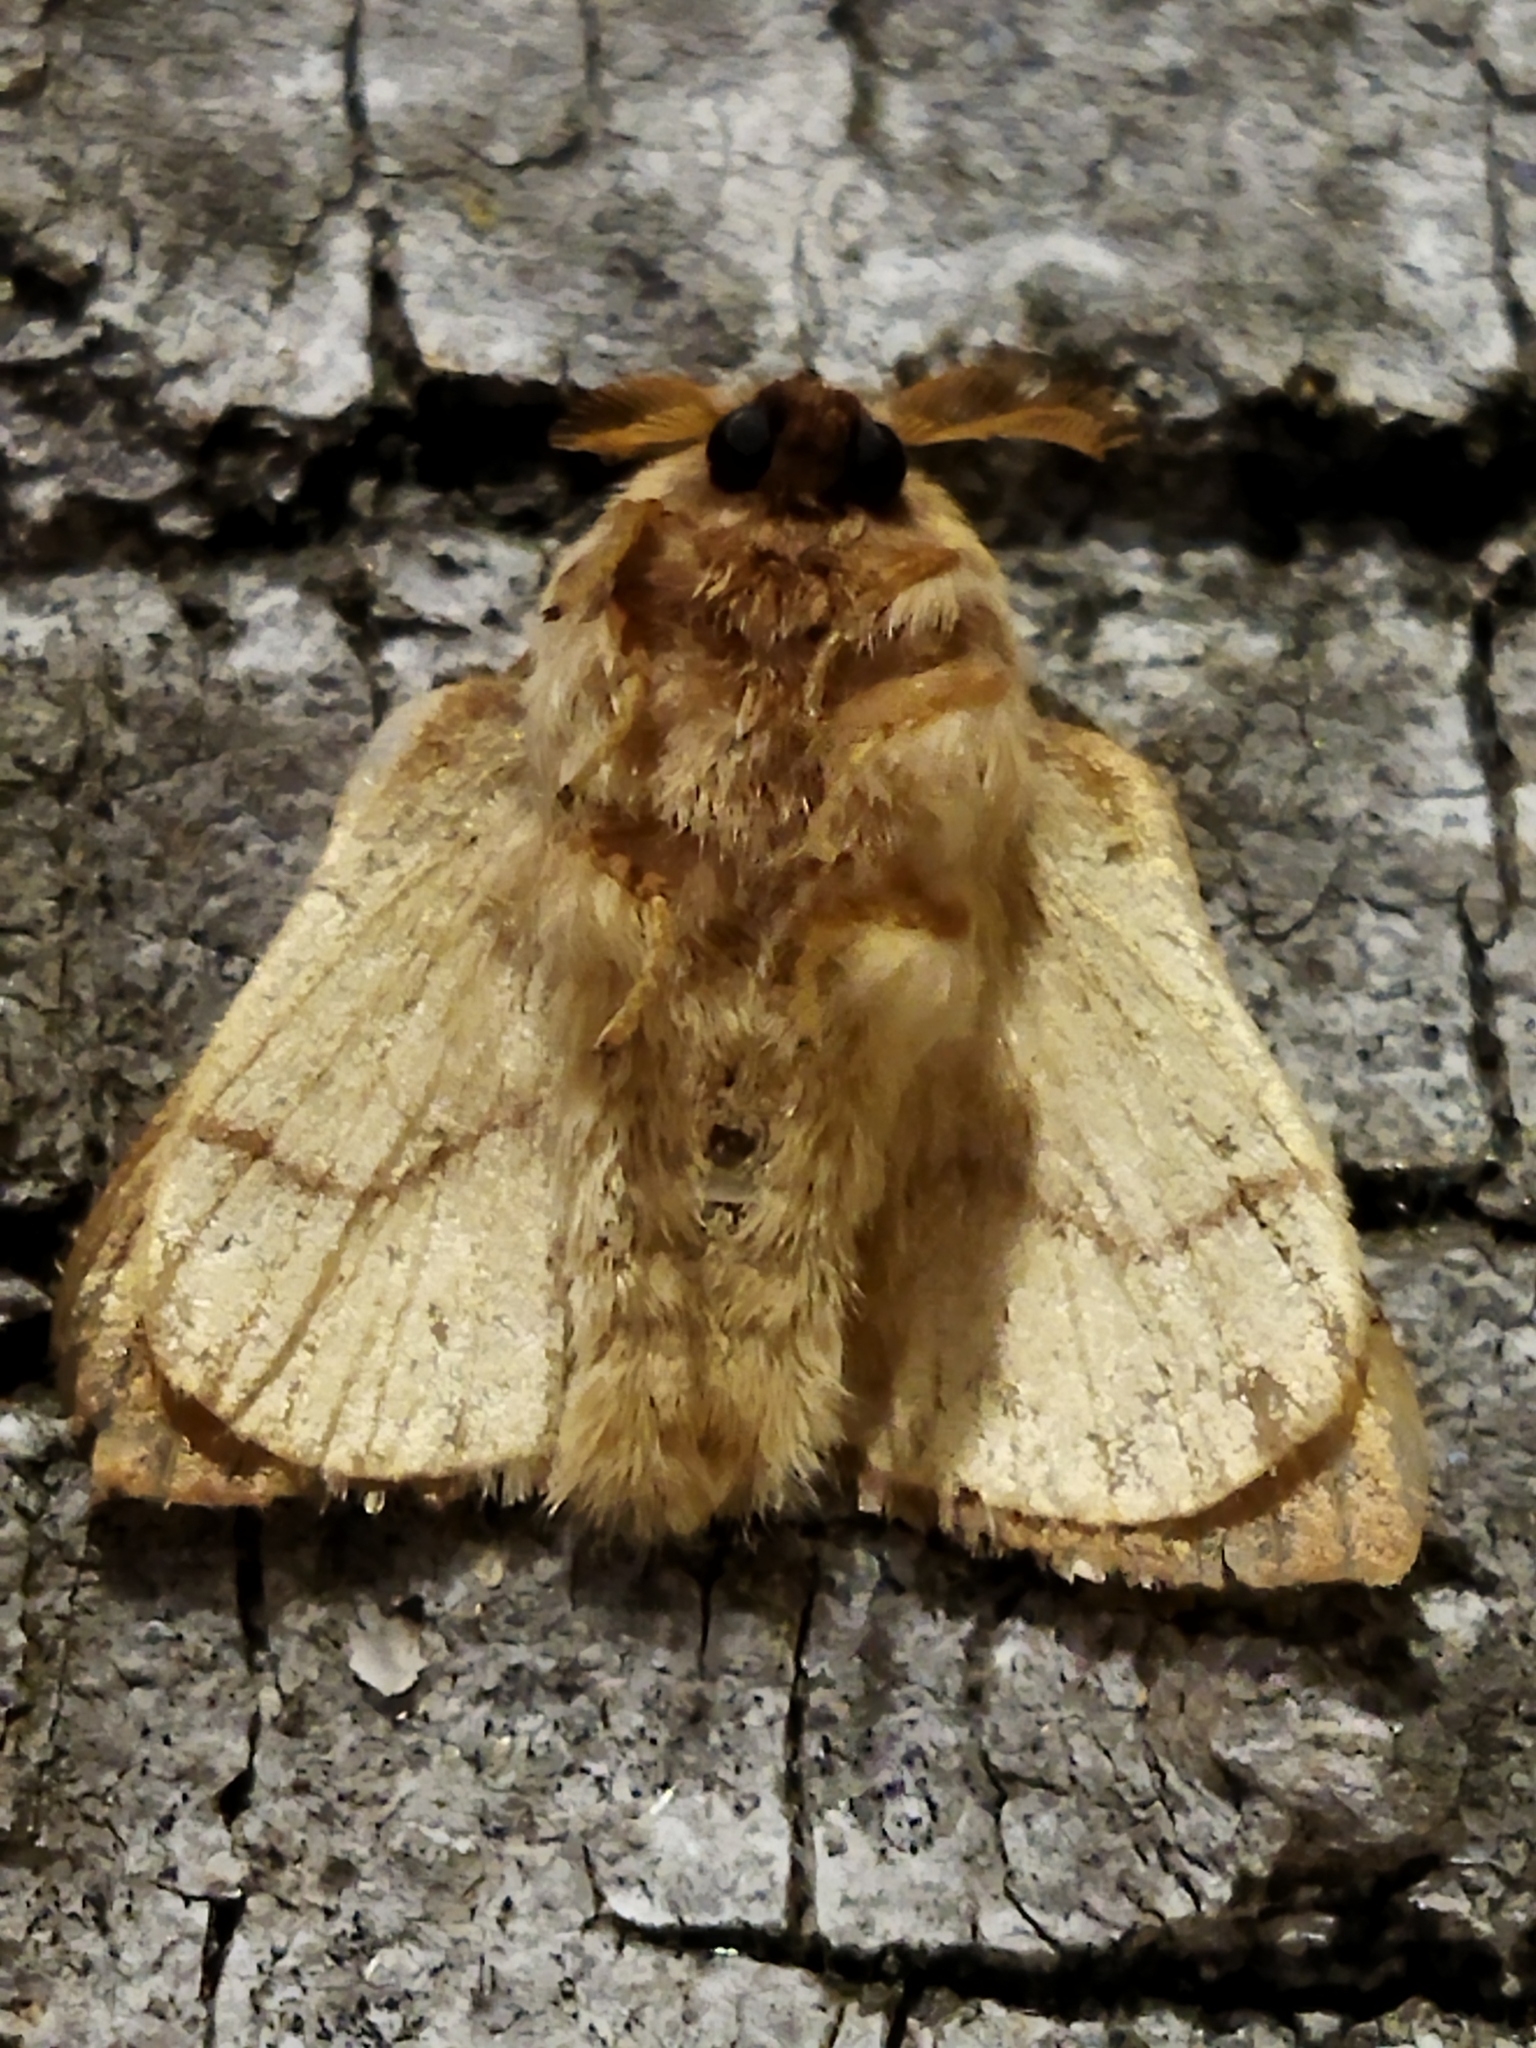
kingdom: Animalia
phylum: Arthropoda
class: Insecta
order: Lepidoptera
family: Lasiocampidae
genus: Malacosoma
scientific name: Malacosoma neustria
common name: The lackey
